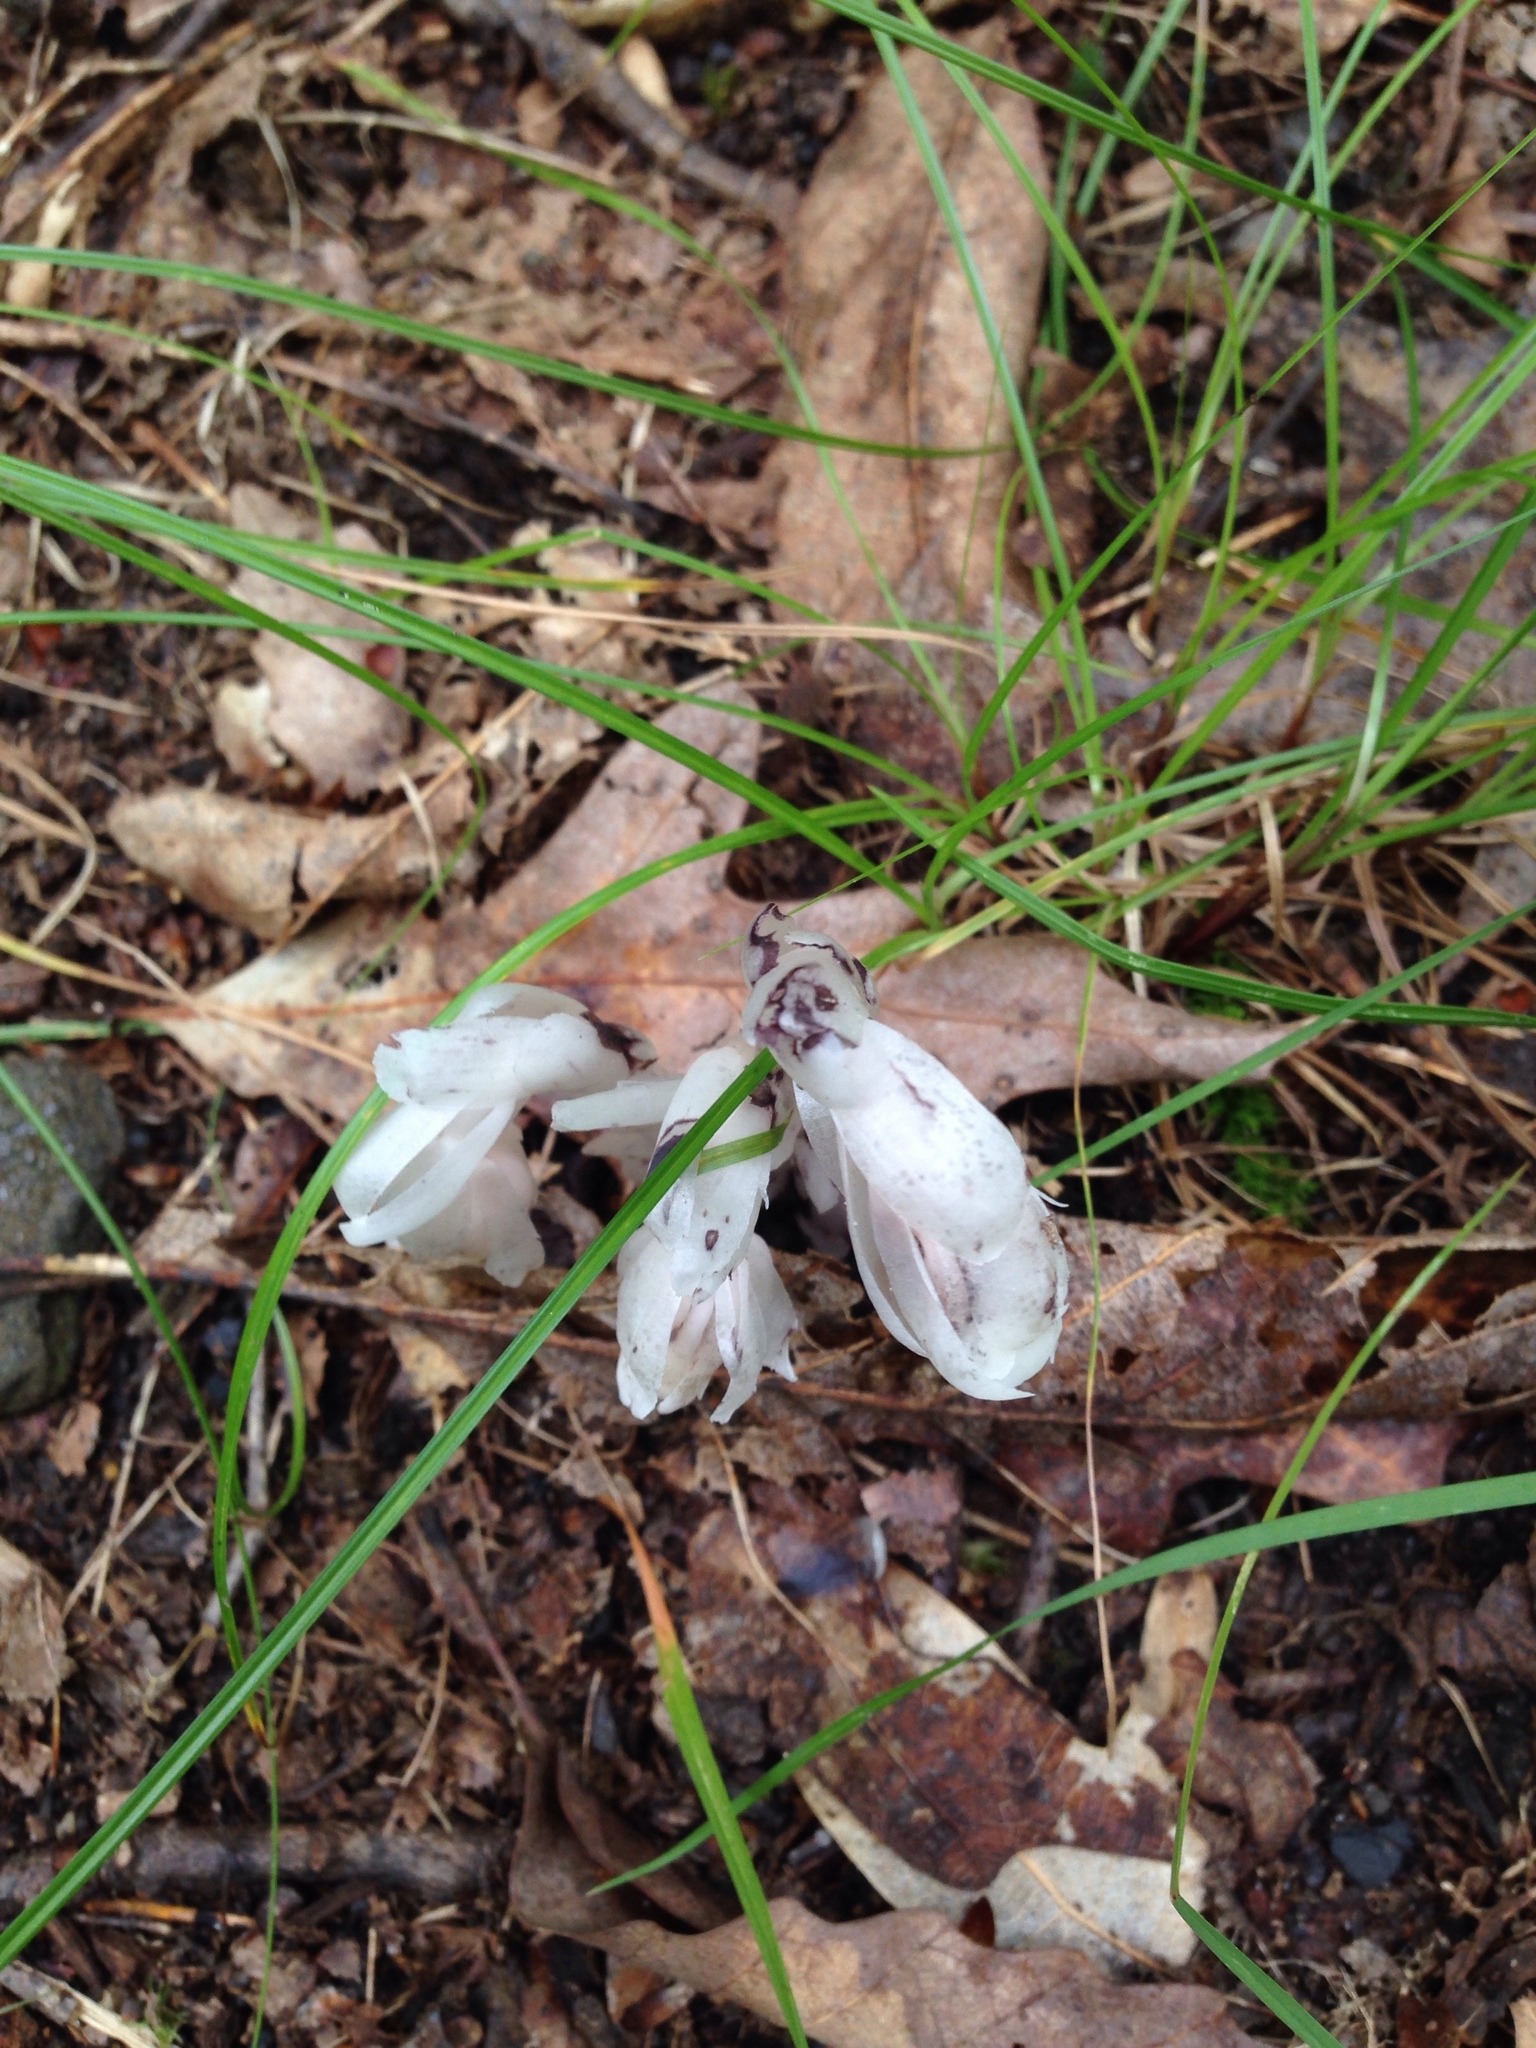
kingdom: Plantae
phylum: Tracheophyta
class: Magnoliopsida
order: Ericales
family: Ericaceae
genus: Monotropa
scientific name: Monotropa uniflora
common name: Convulsion root
